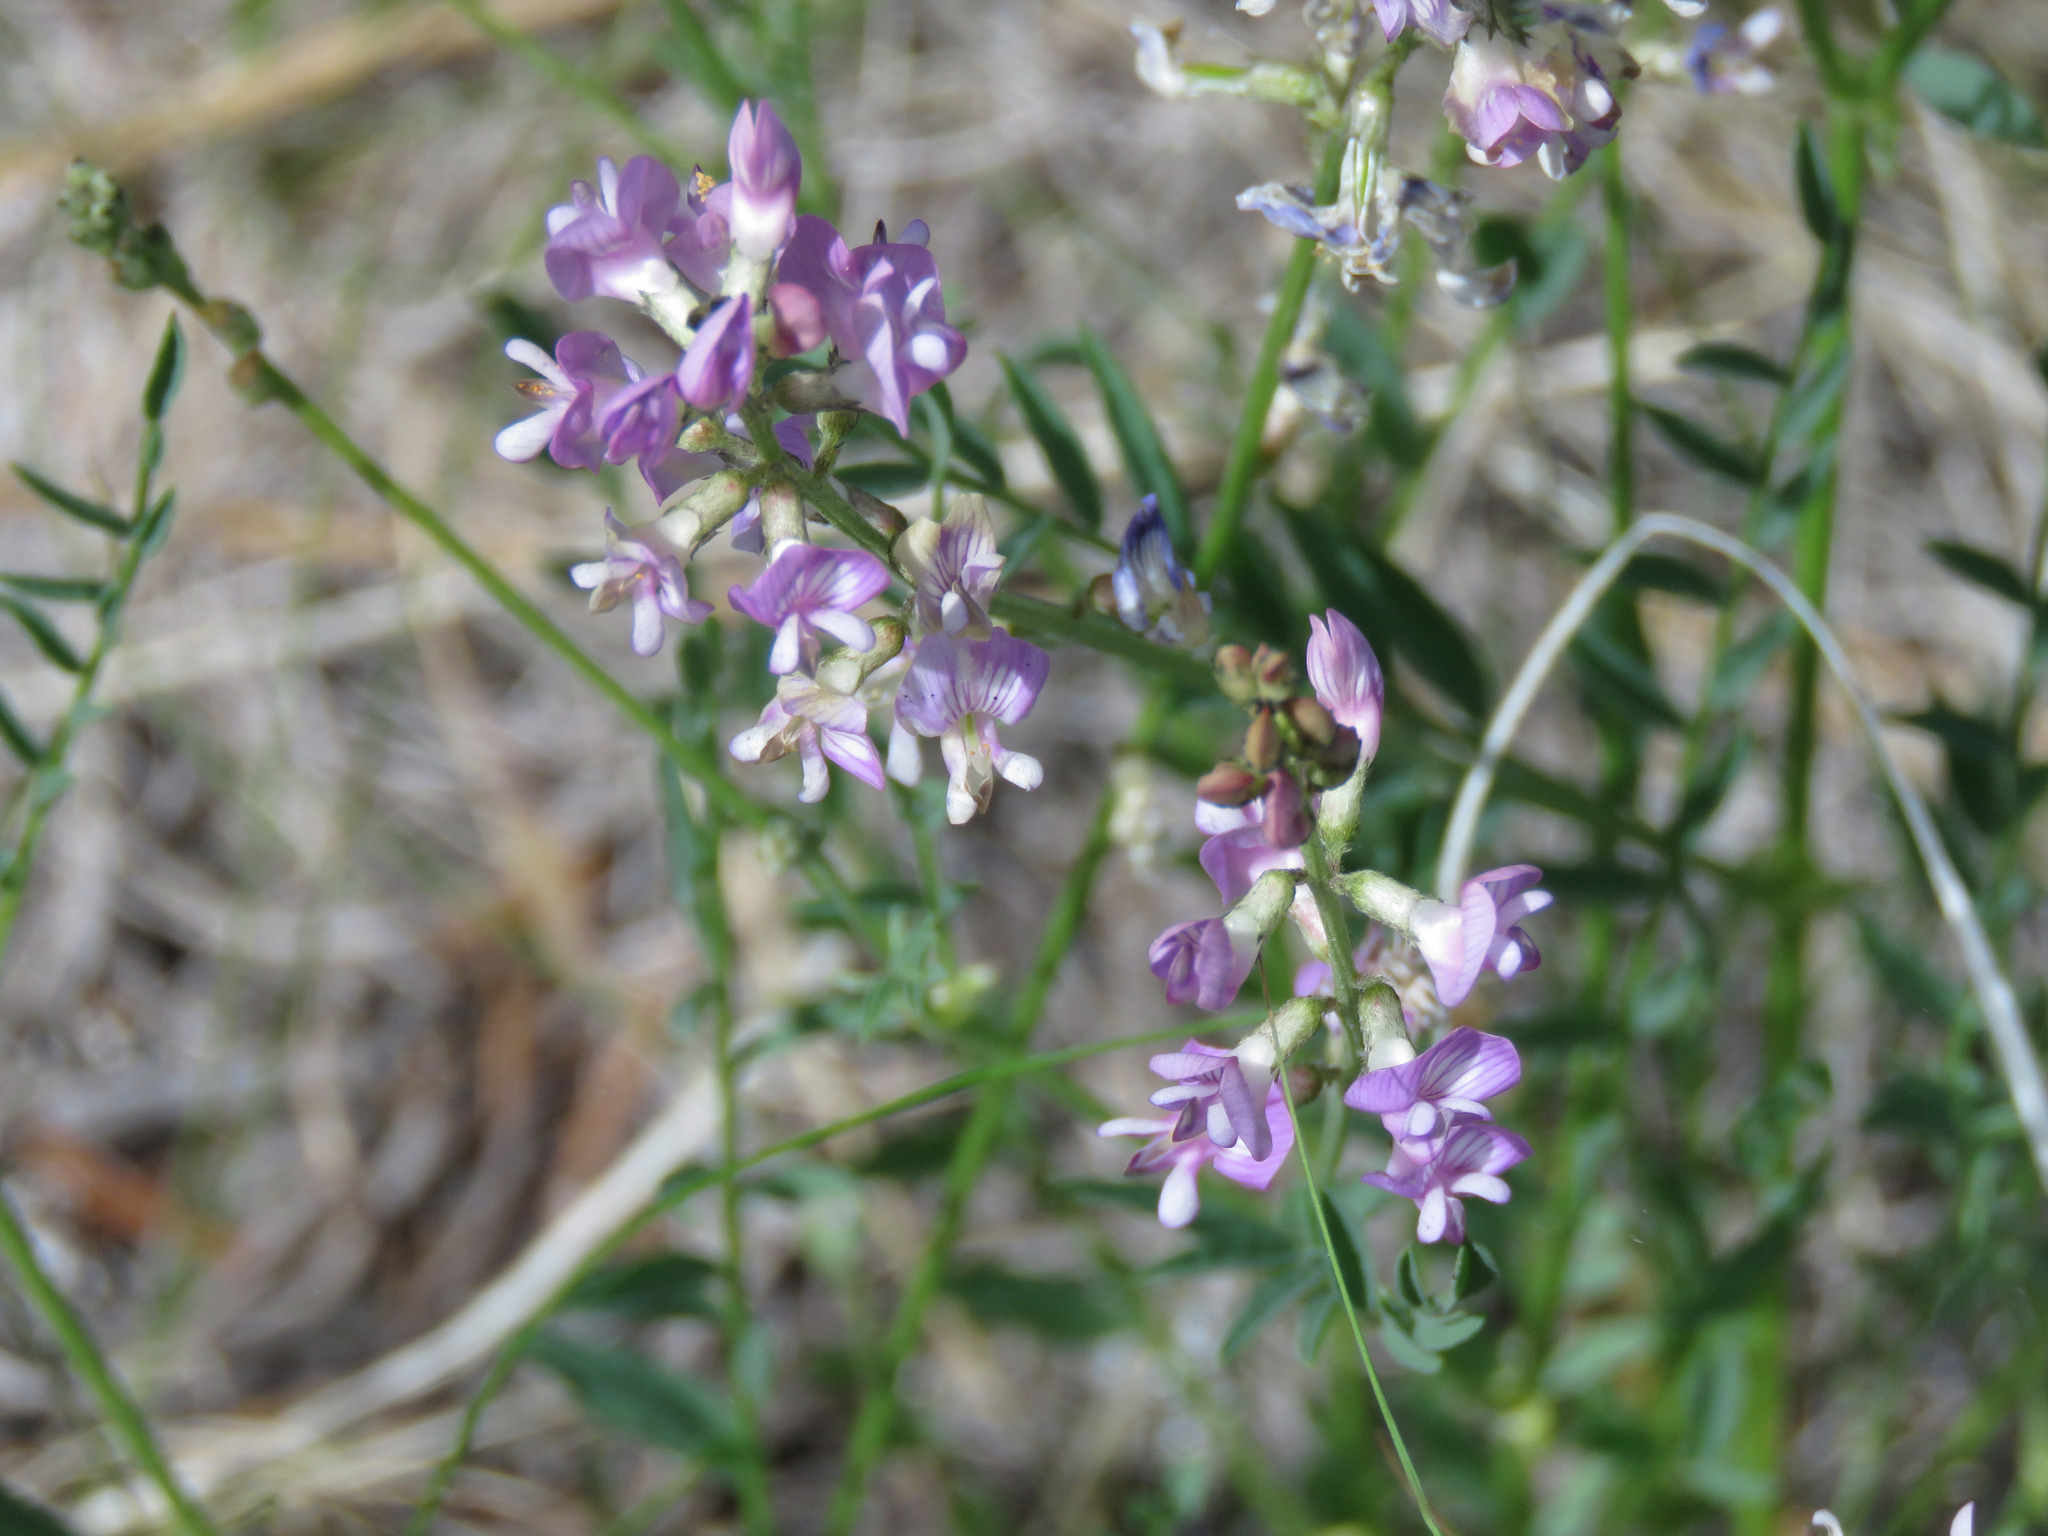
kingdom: Plantae
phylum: Tracheophyta
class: Magnoliopsida
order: Fabales
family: Fabaceae
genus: Astragalus
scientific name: Astragalus miser
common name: Timber milkvetch
